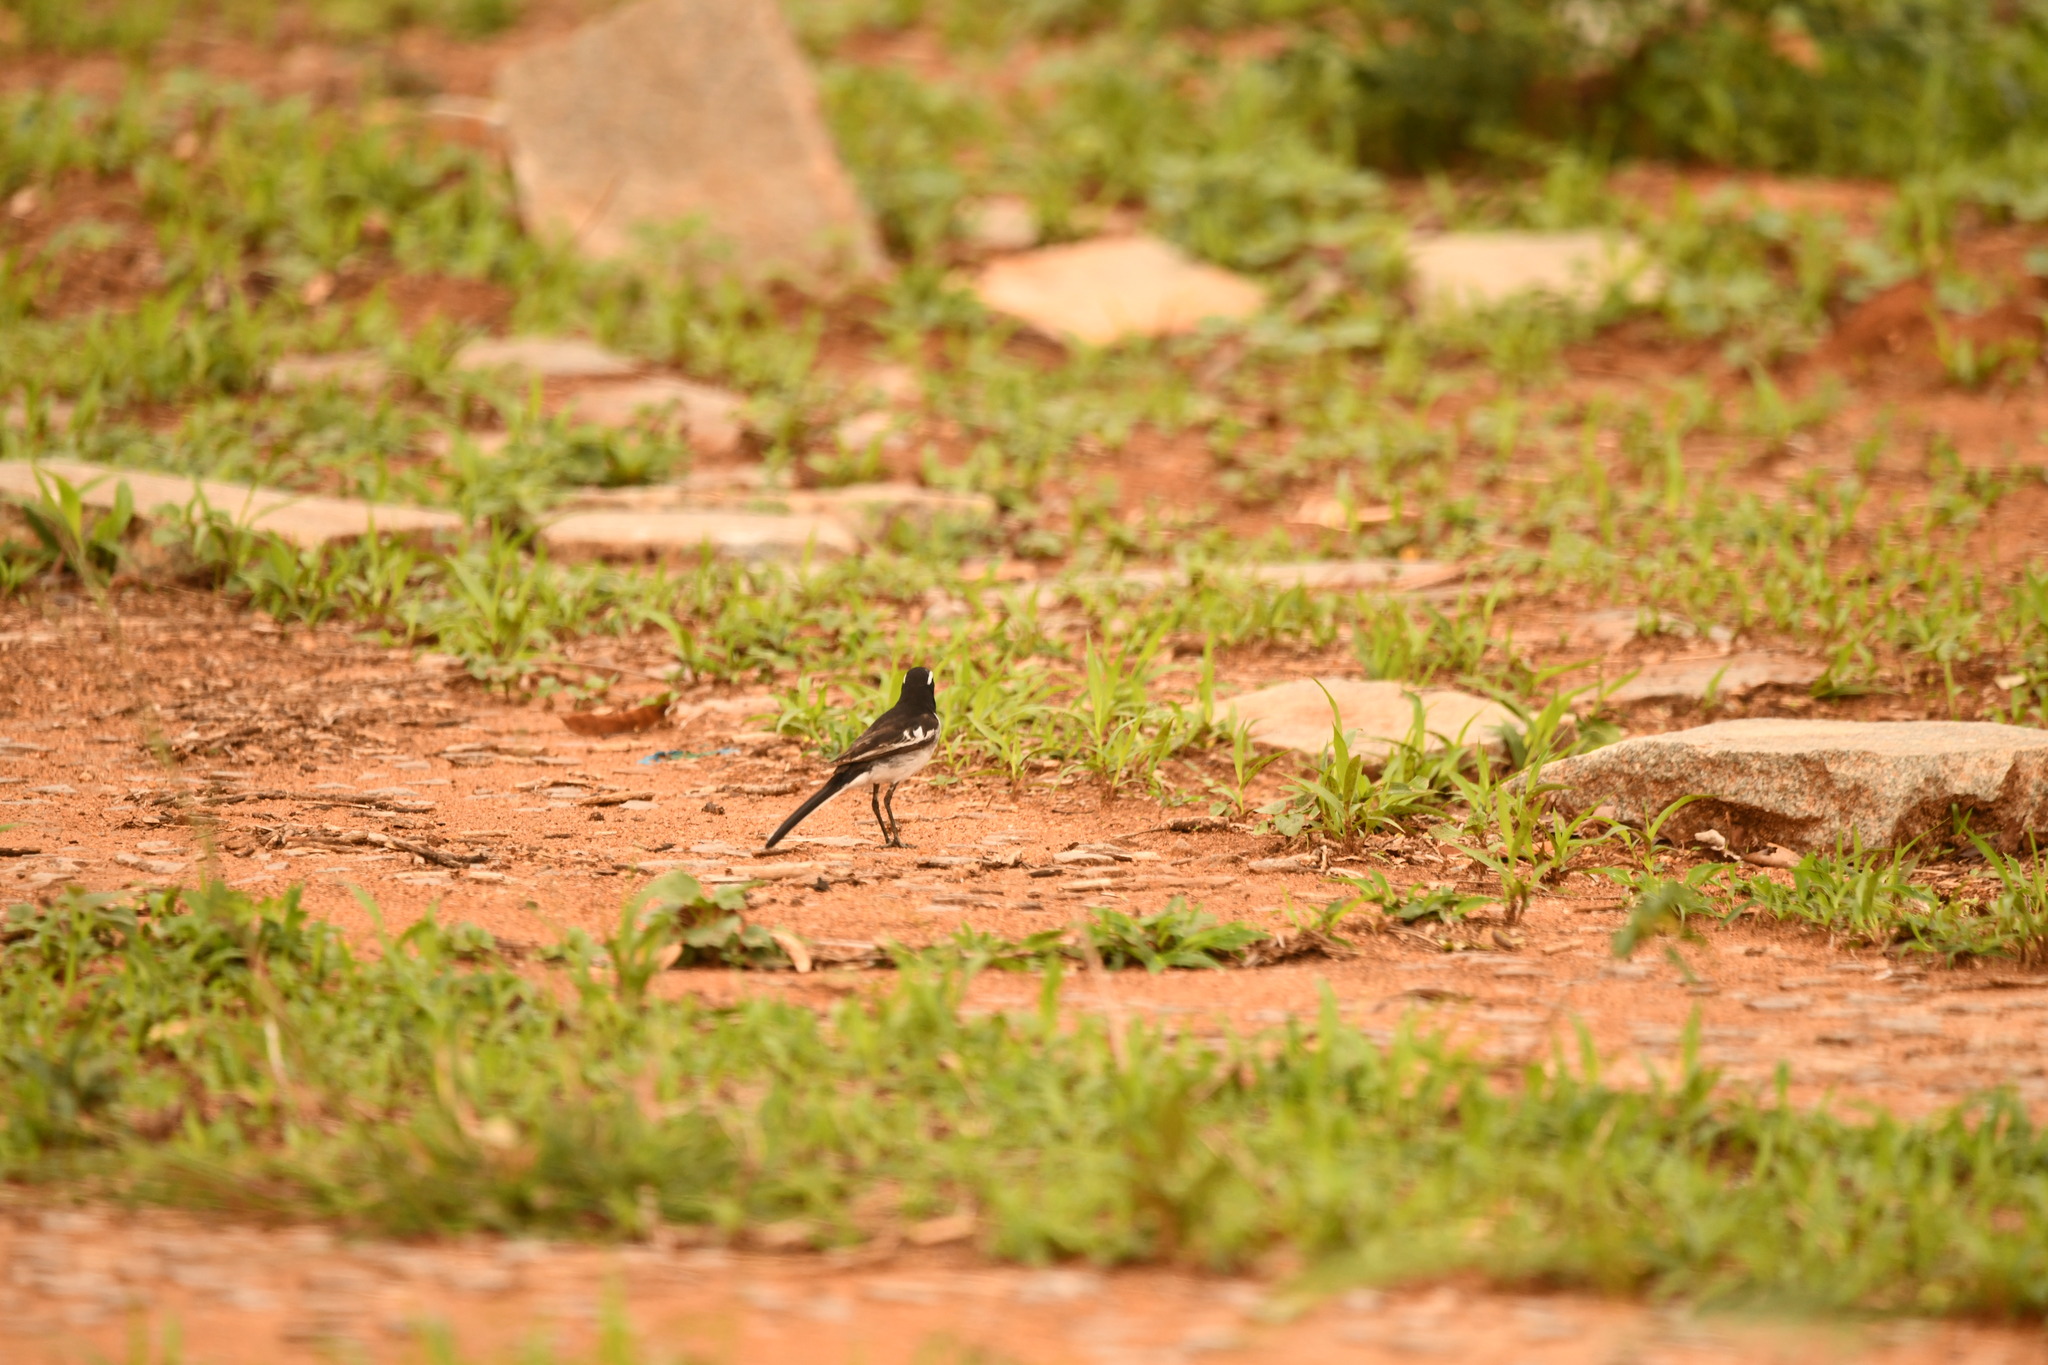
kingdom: Animalia
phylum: Chordata
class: Aves
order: Passeriformes
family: Motacillidae
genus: Motacilla
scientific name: Motacilla maderaspatensis
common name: White-browed wagtail
